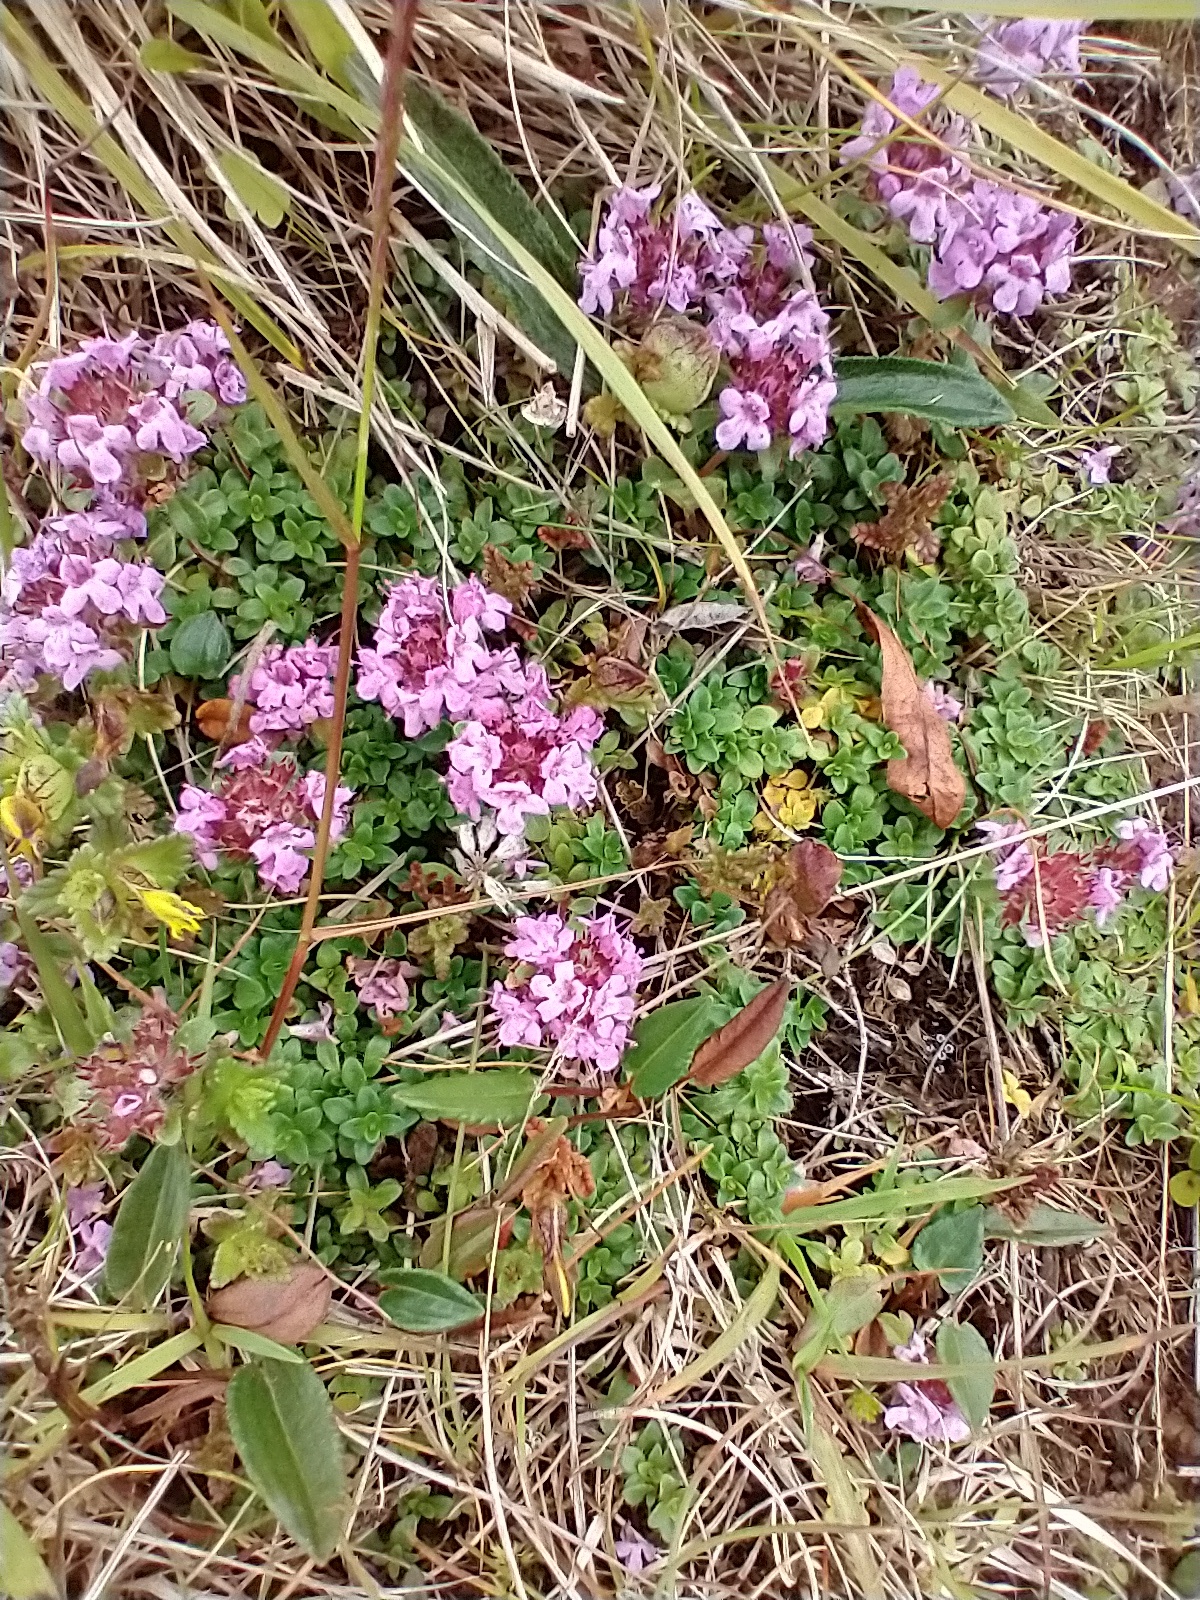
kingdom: Plantae
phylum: Tracheophyta
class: Magnoliopsida
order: Lamiales
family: Lamiaceae
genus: Thymus
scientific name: Thymus praecox
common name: Wild thyme
